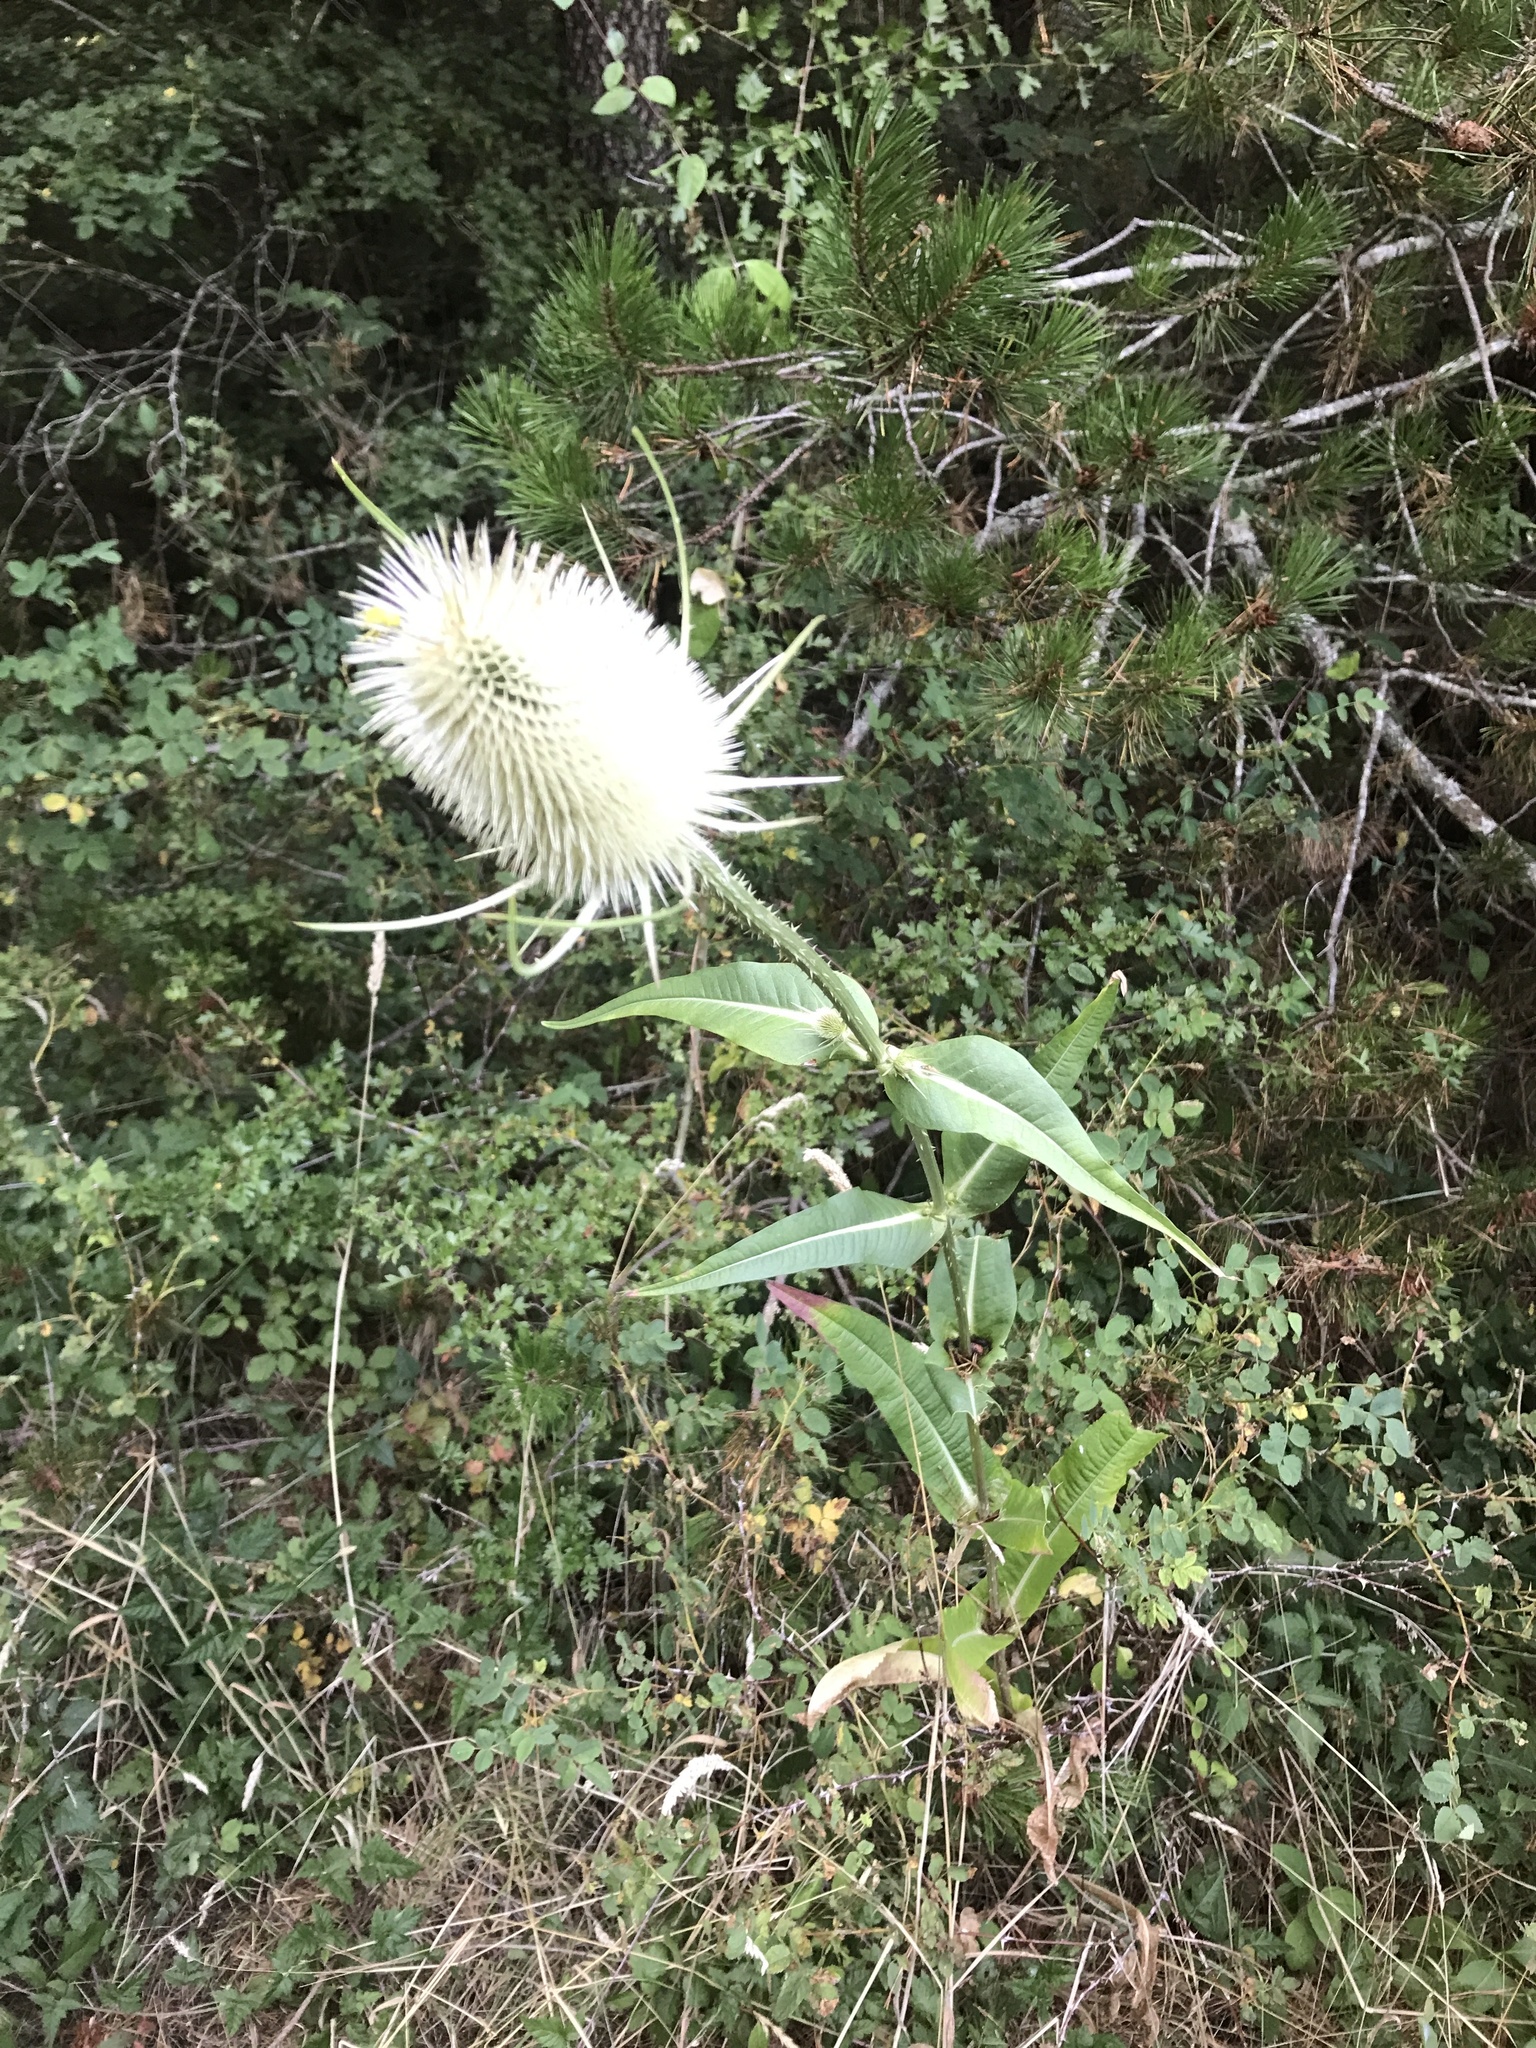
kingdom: Plantae
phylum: Tracheophyta
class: Magnoliopsida
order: Dipsacales
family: Caprifoliaceae
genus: Dipsacus
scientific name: Dipsacus fullonum
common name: Teasel
